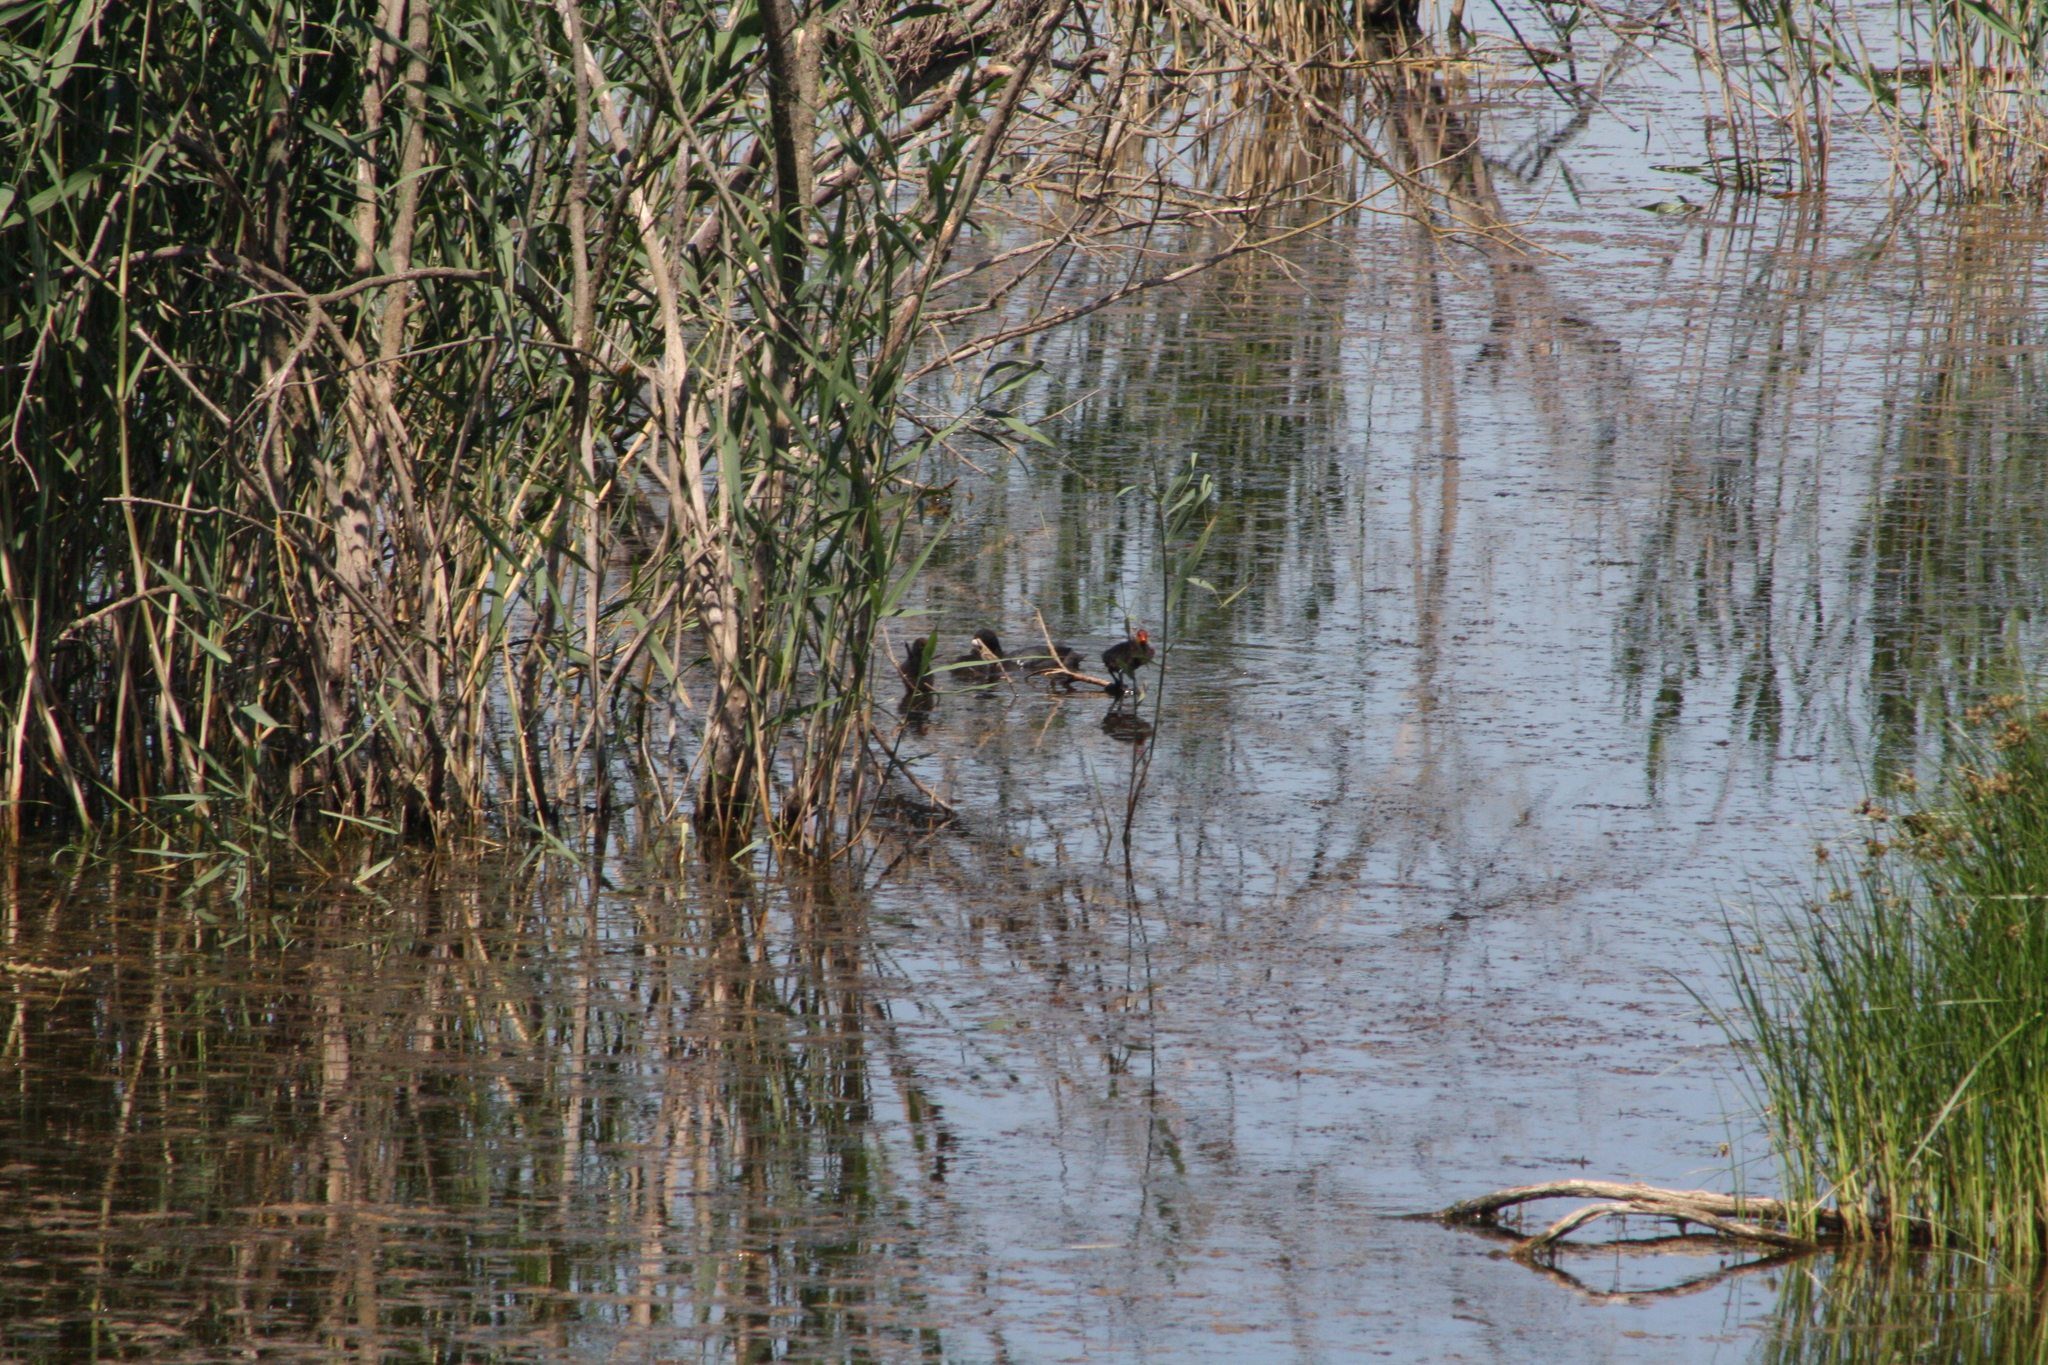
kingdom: Animalia
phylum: Chordata
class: Aves
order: Gruiformes
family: Rallidae
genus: Fulica
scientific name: Fulica atra
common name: Eurasian coot
